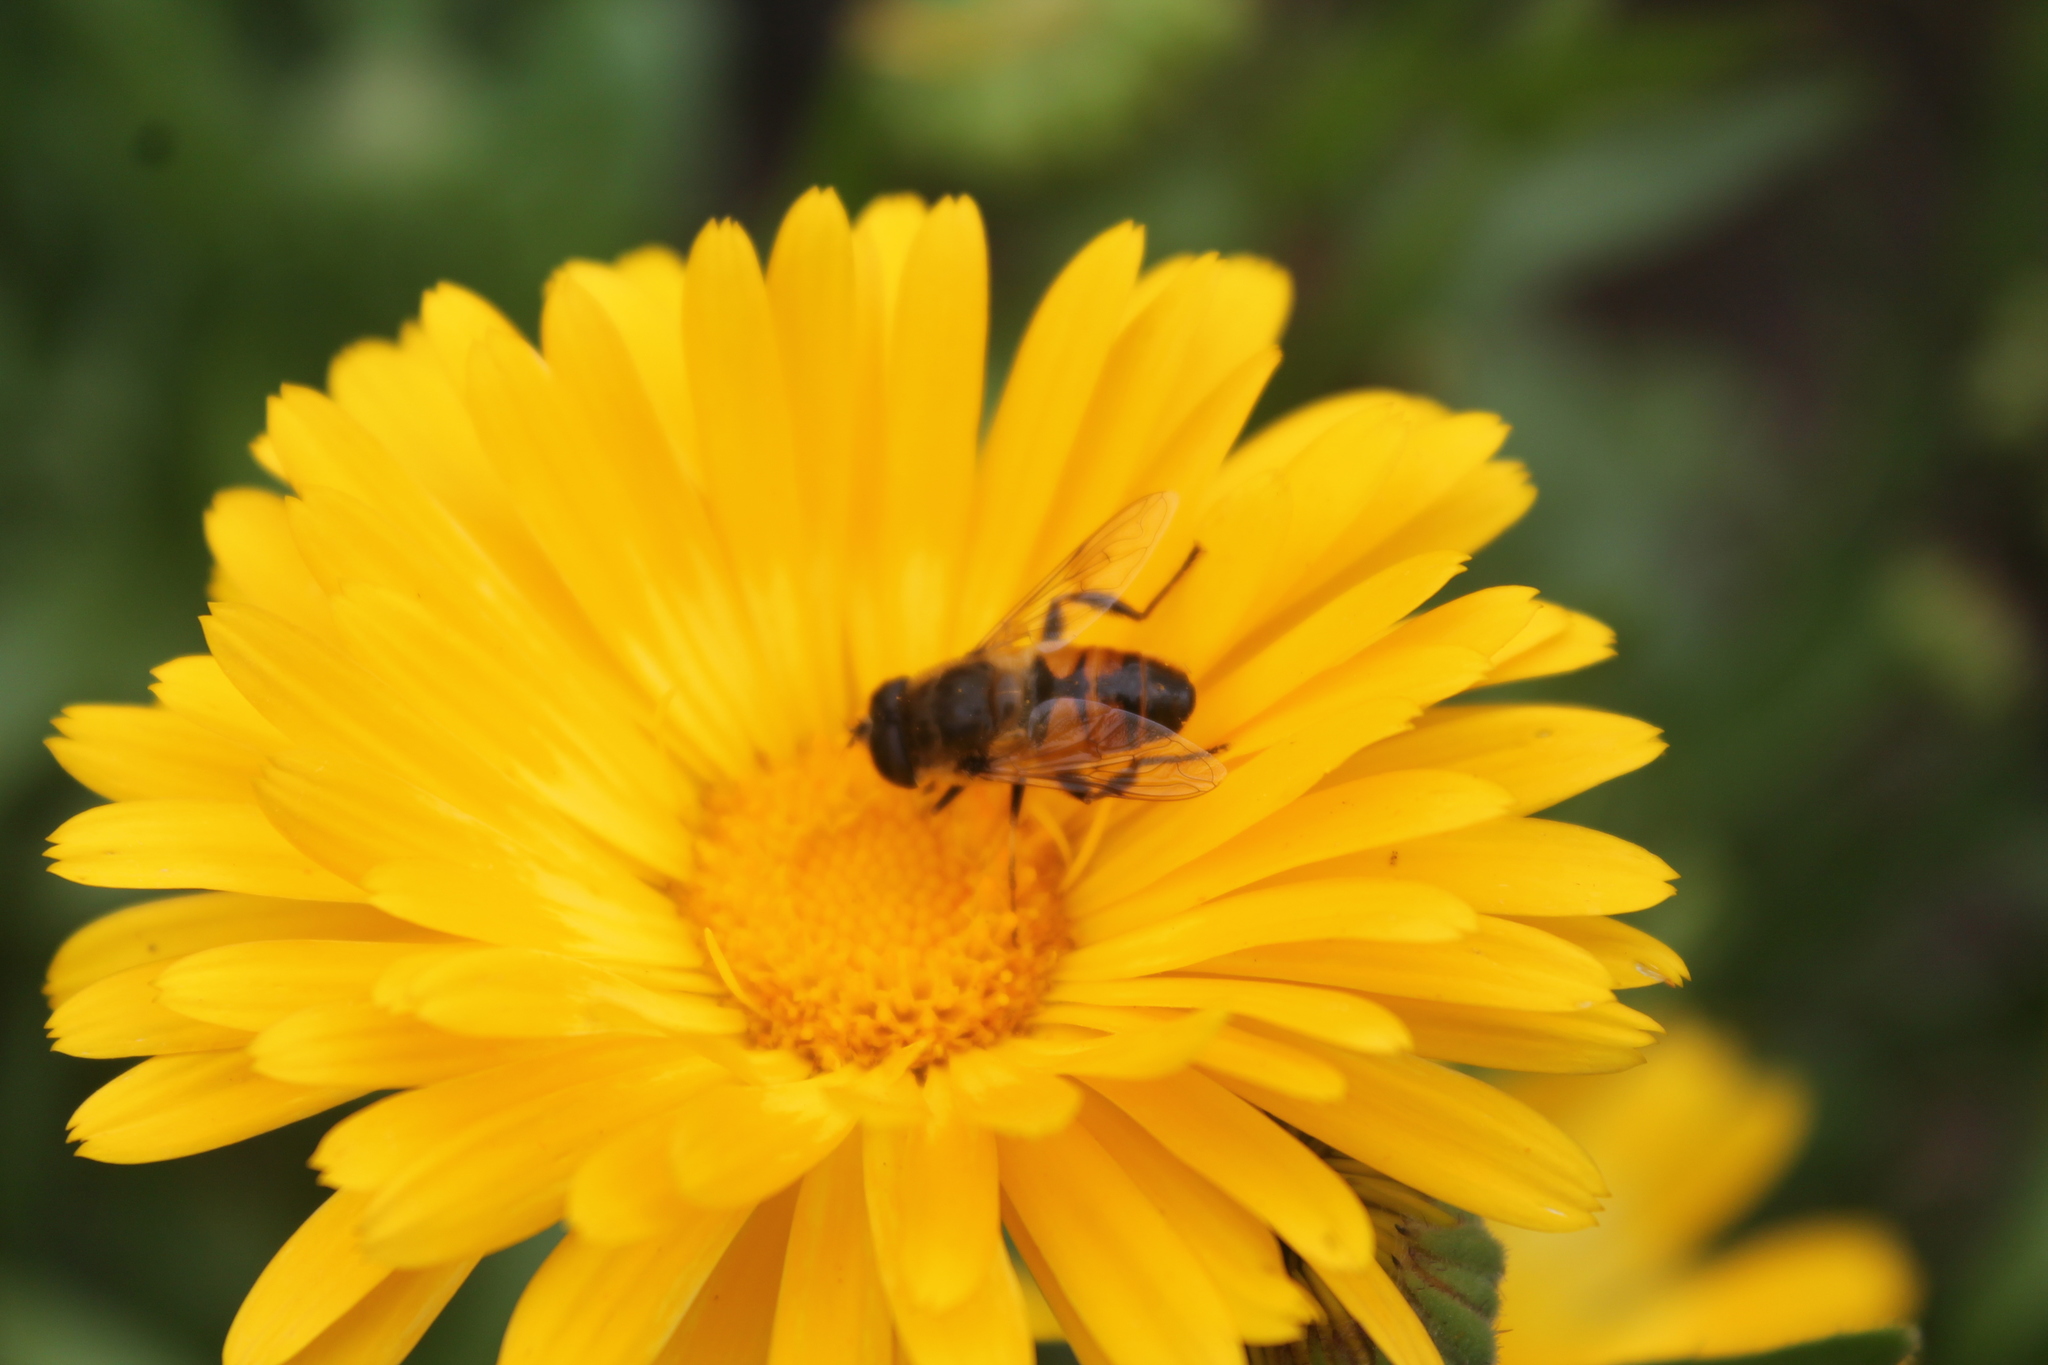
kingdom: Animalia
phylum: Arthropoda
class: Insecta
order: Diptera
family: Syrphidae
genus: Eristalis
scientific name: Eristalis tenax
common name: Drone fly
